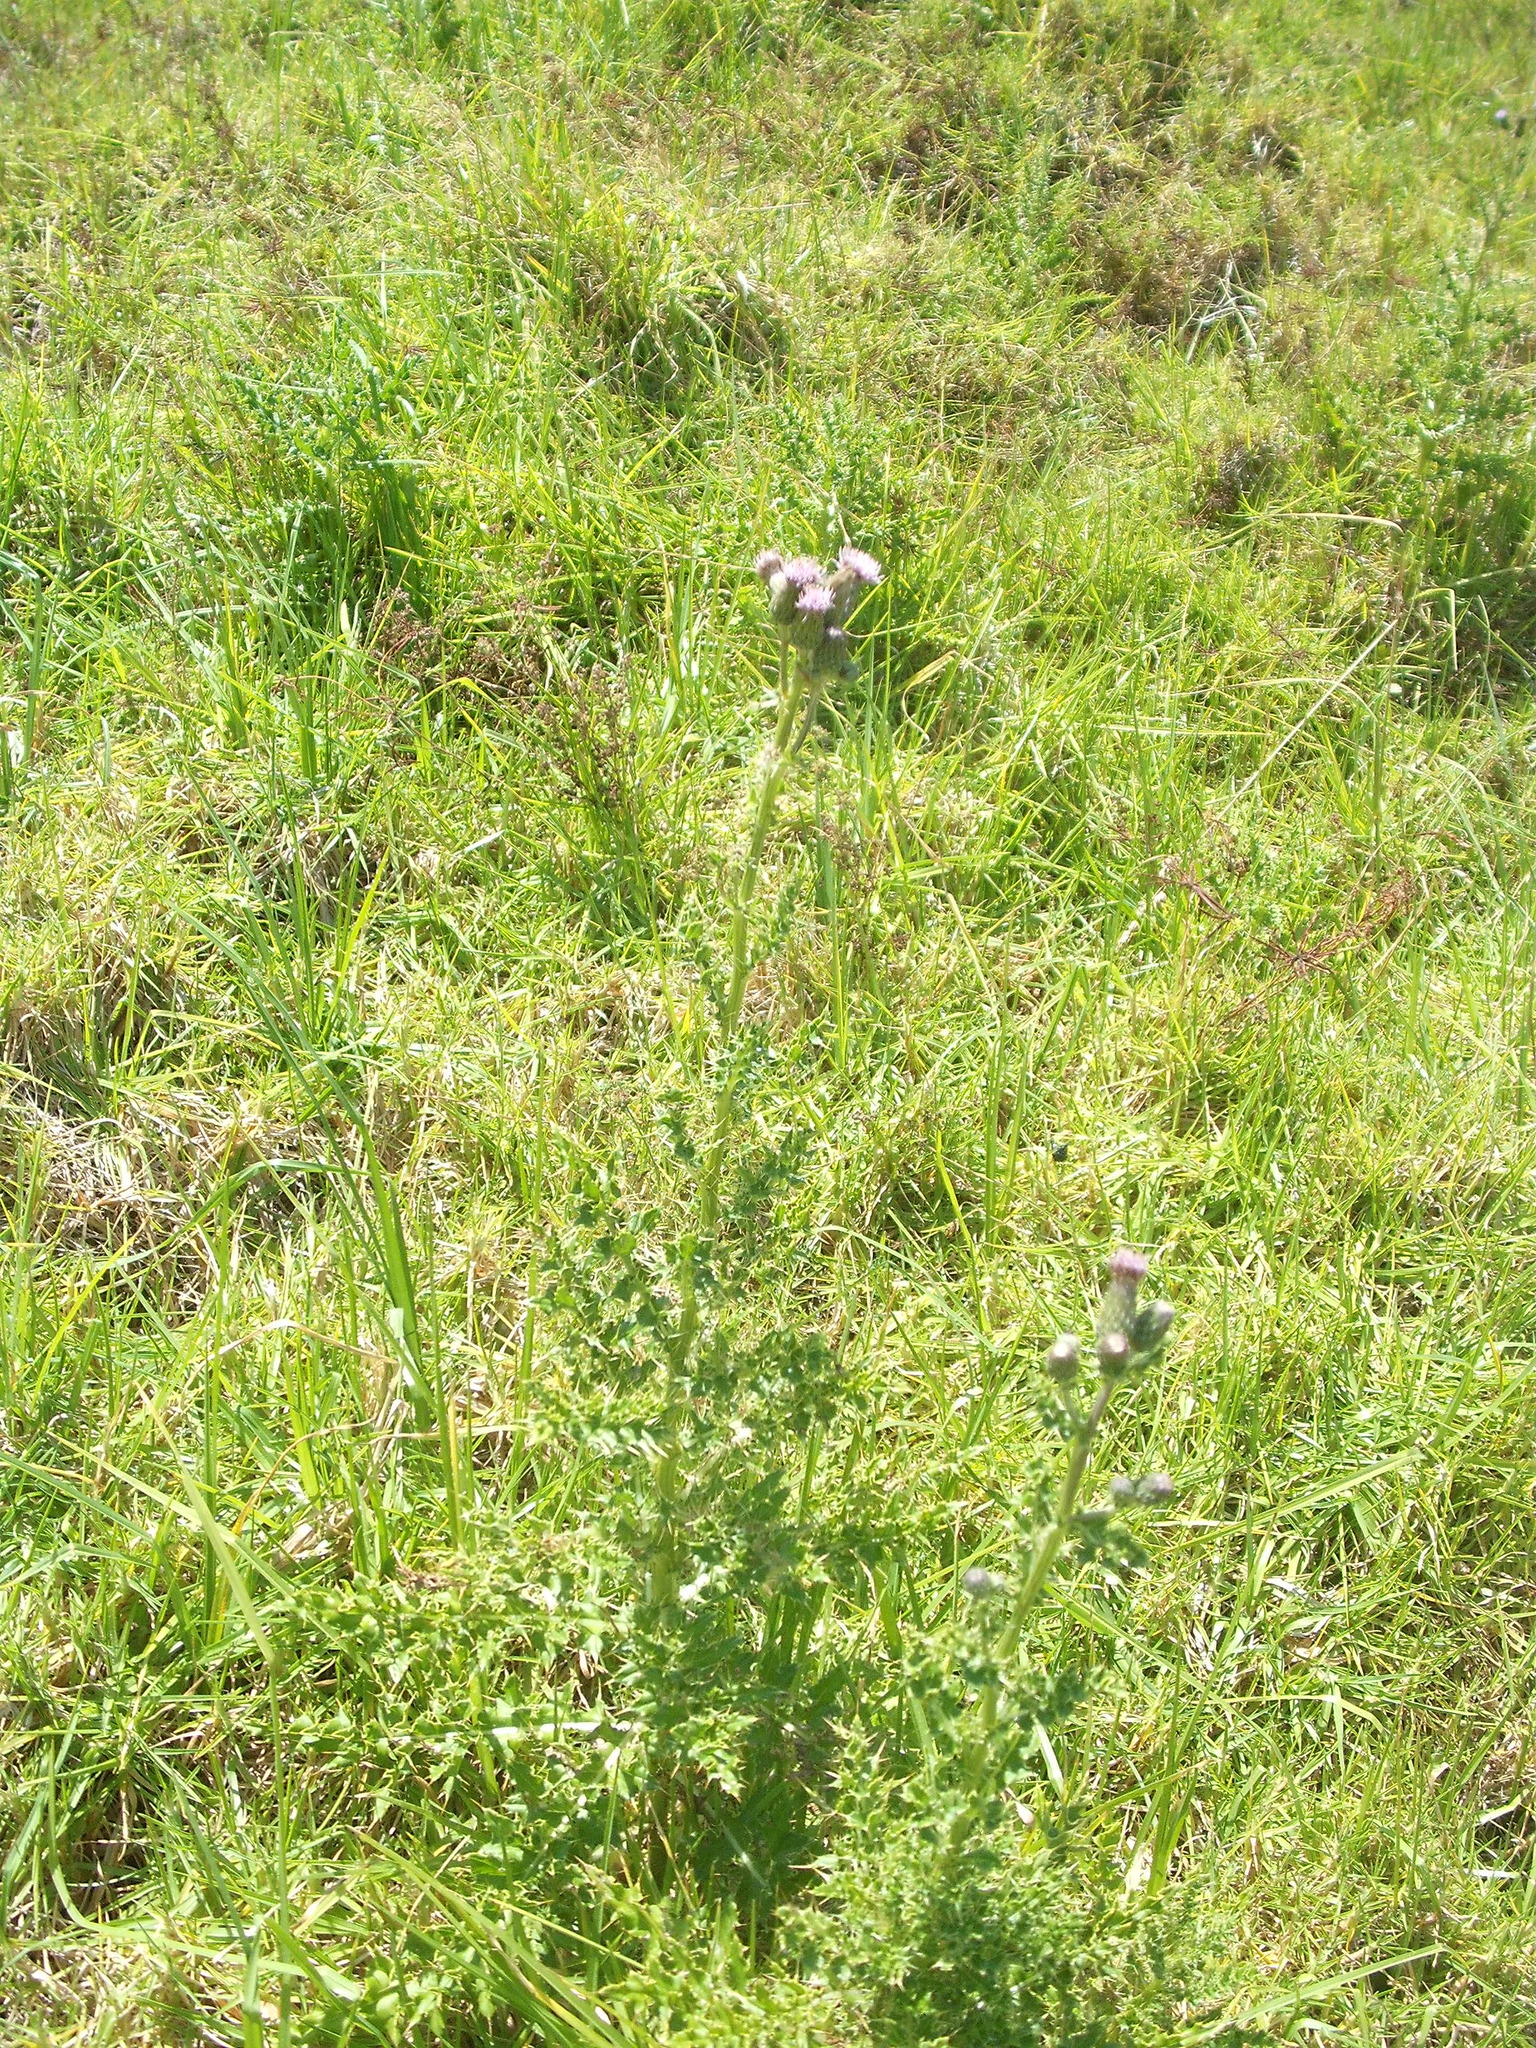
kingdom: Plantae
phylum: Tracheophyta
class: Magnoliopsida
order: Asterales
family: Asteraceae
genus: Cirsium
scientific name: Cirsium arvense
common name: Creeping thistle
